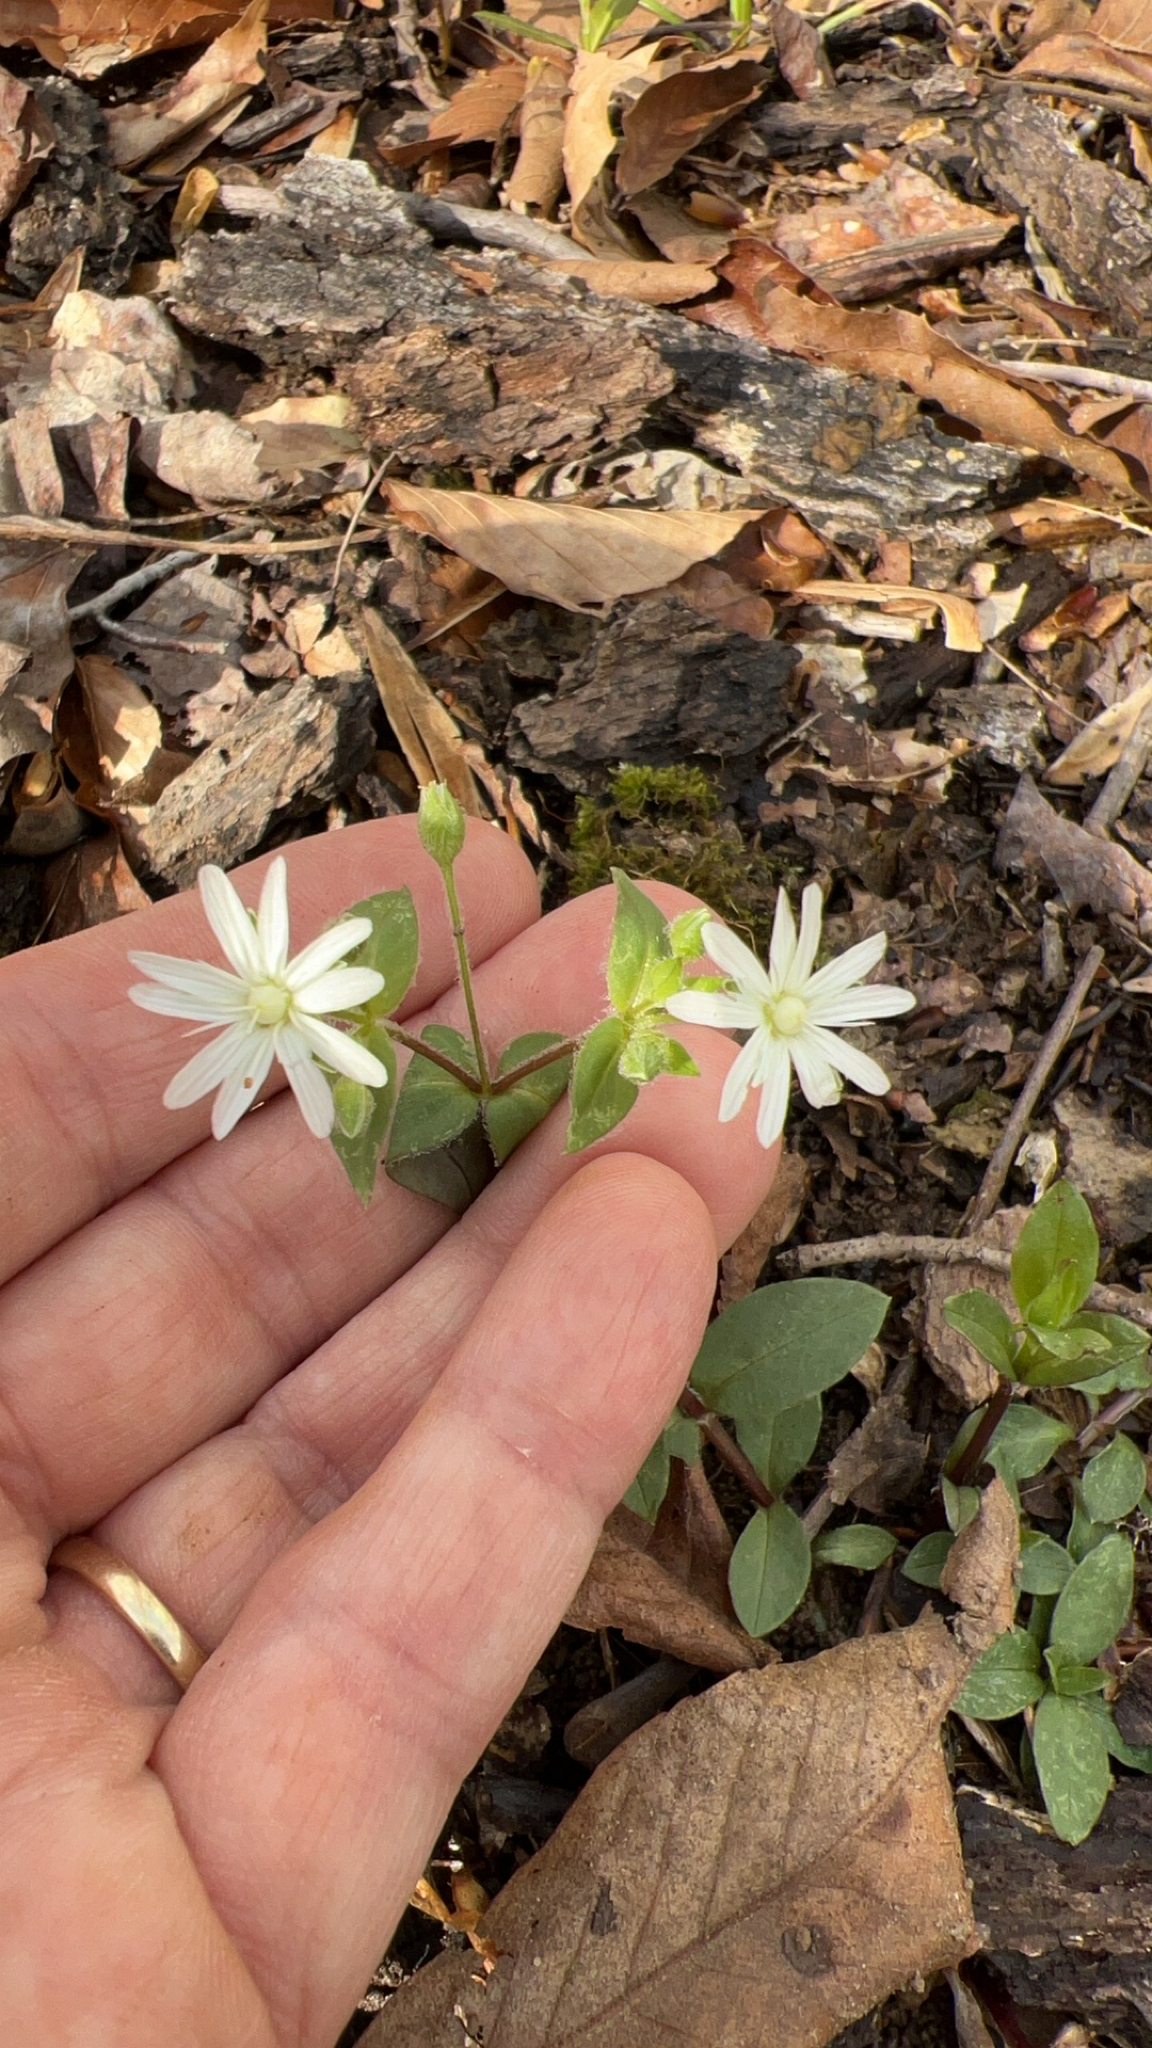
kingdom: Plantae
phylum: Tracheophyta
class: Magnoliopsida
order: Caryophyllales
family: Caryophyllaceae
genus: Stellaria
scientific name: Stellaria pubera
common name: Star chickweed
